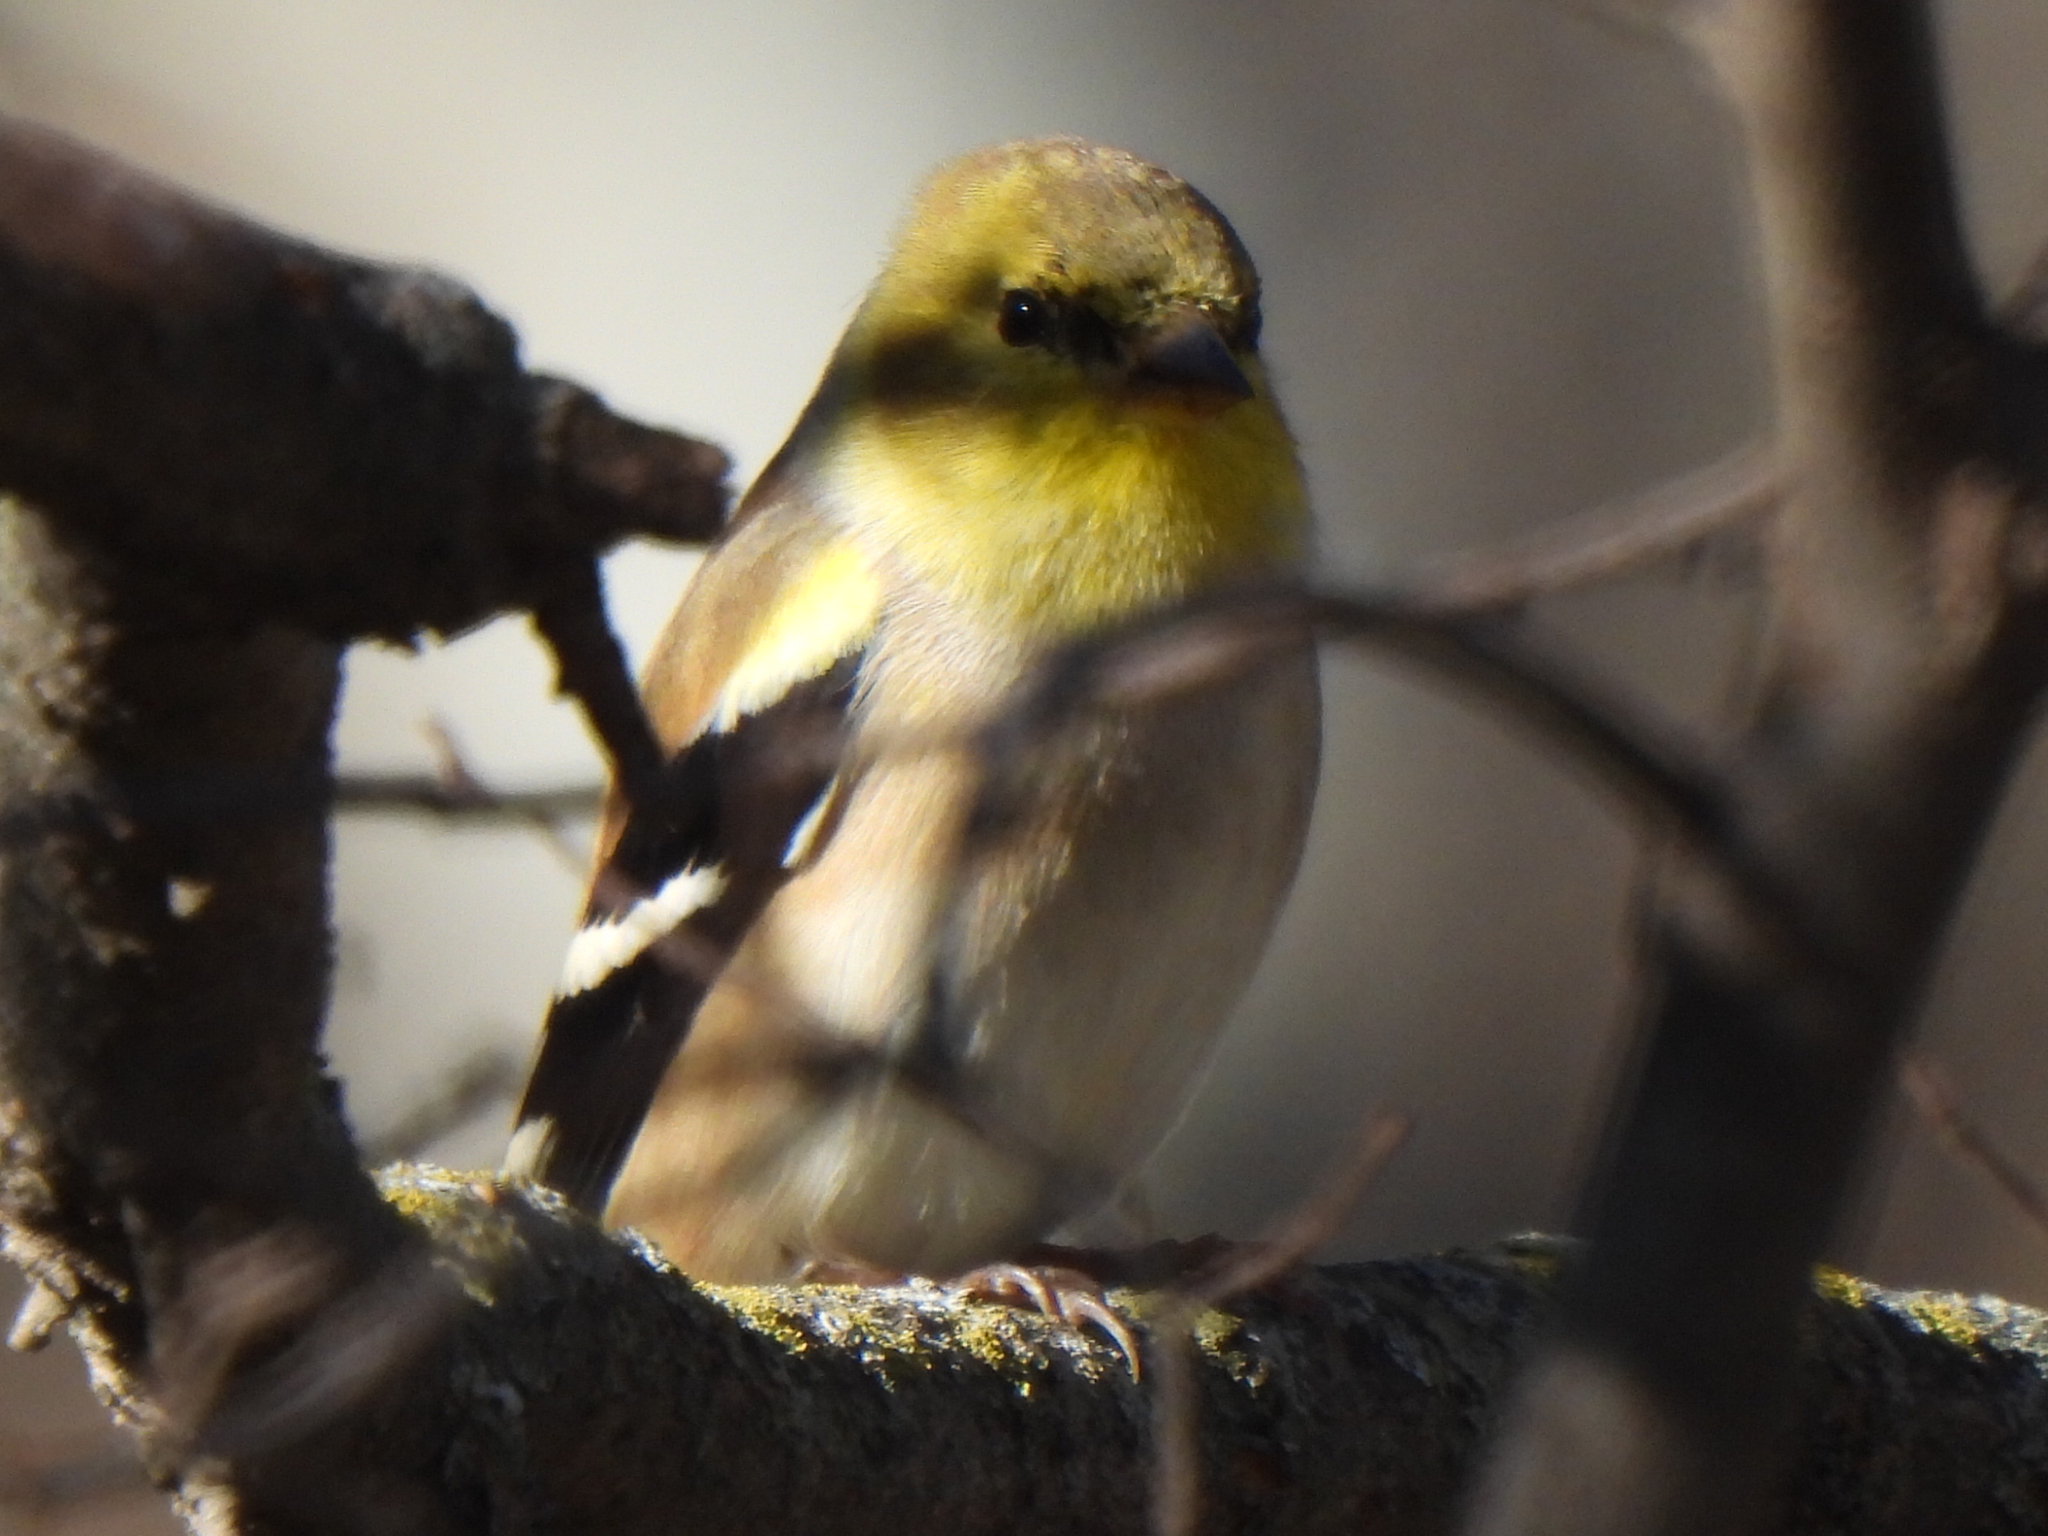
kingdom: Animalia
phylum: Chordata
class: Aves
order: Passeriformes
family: Fringillidae
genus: Spinus
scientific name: Spinus tristis
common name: American goldfinch
